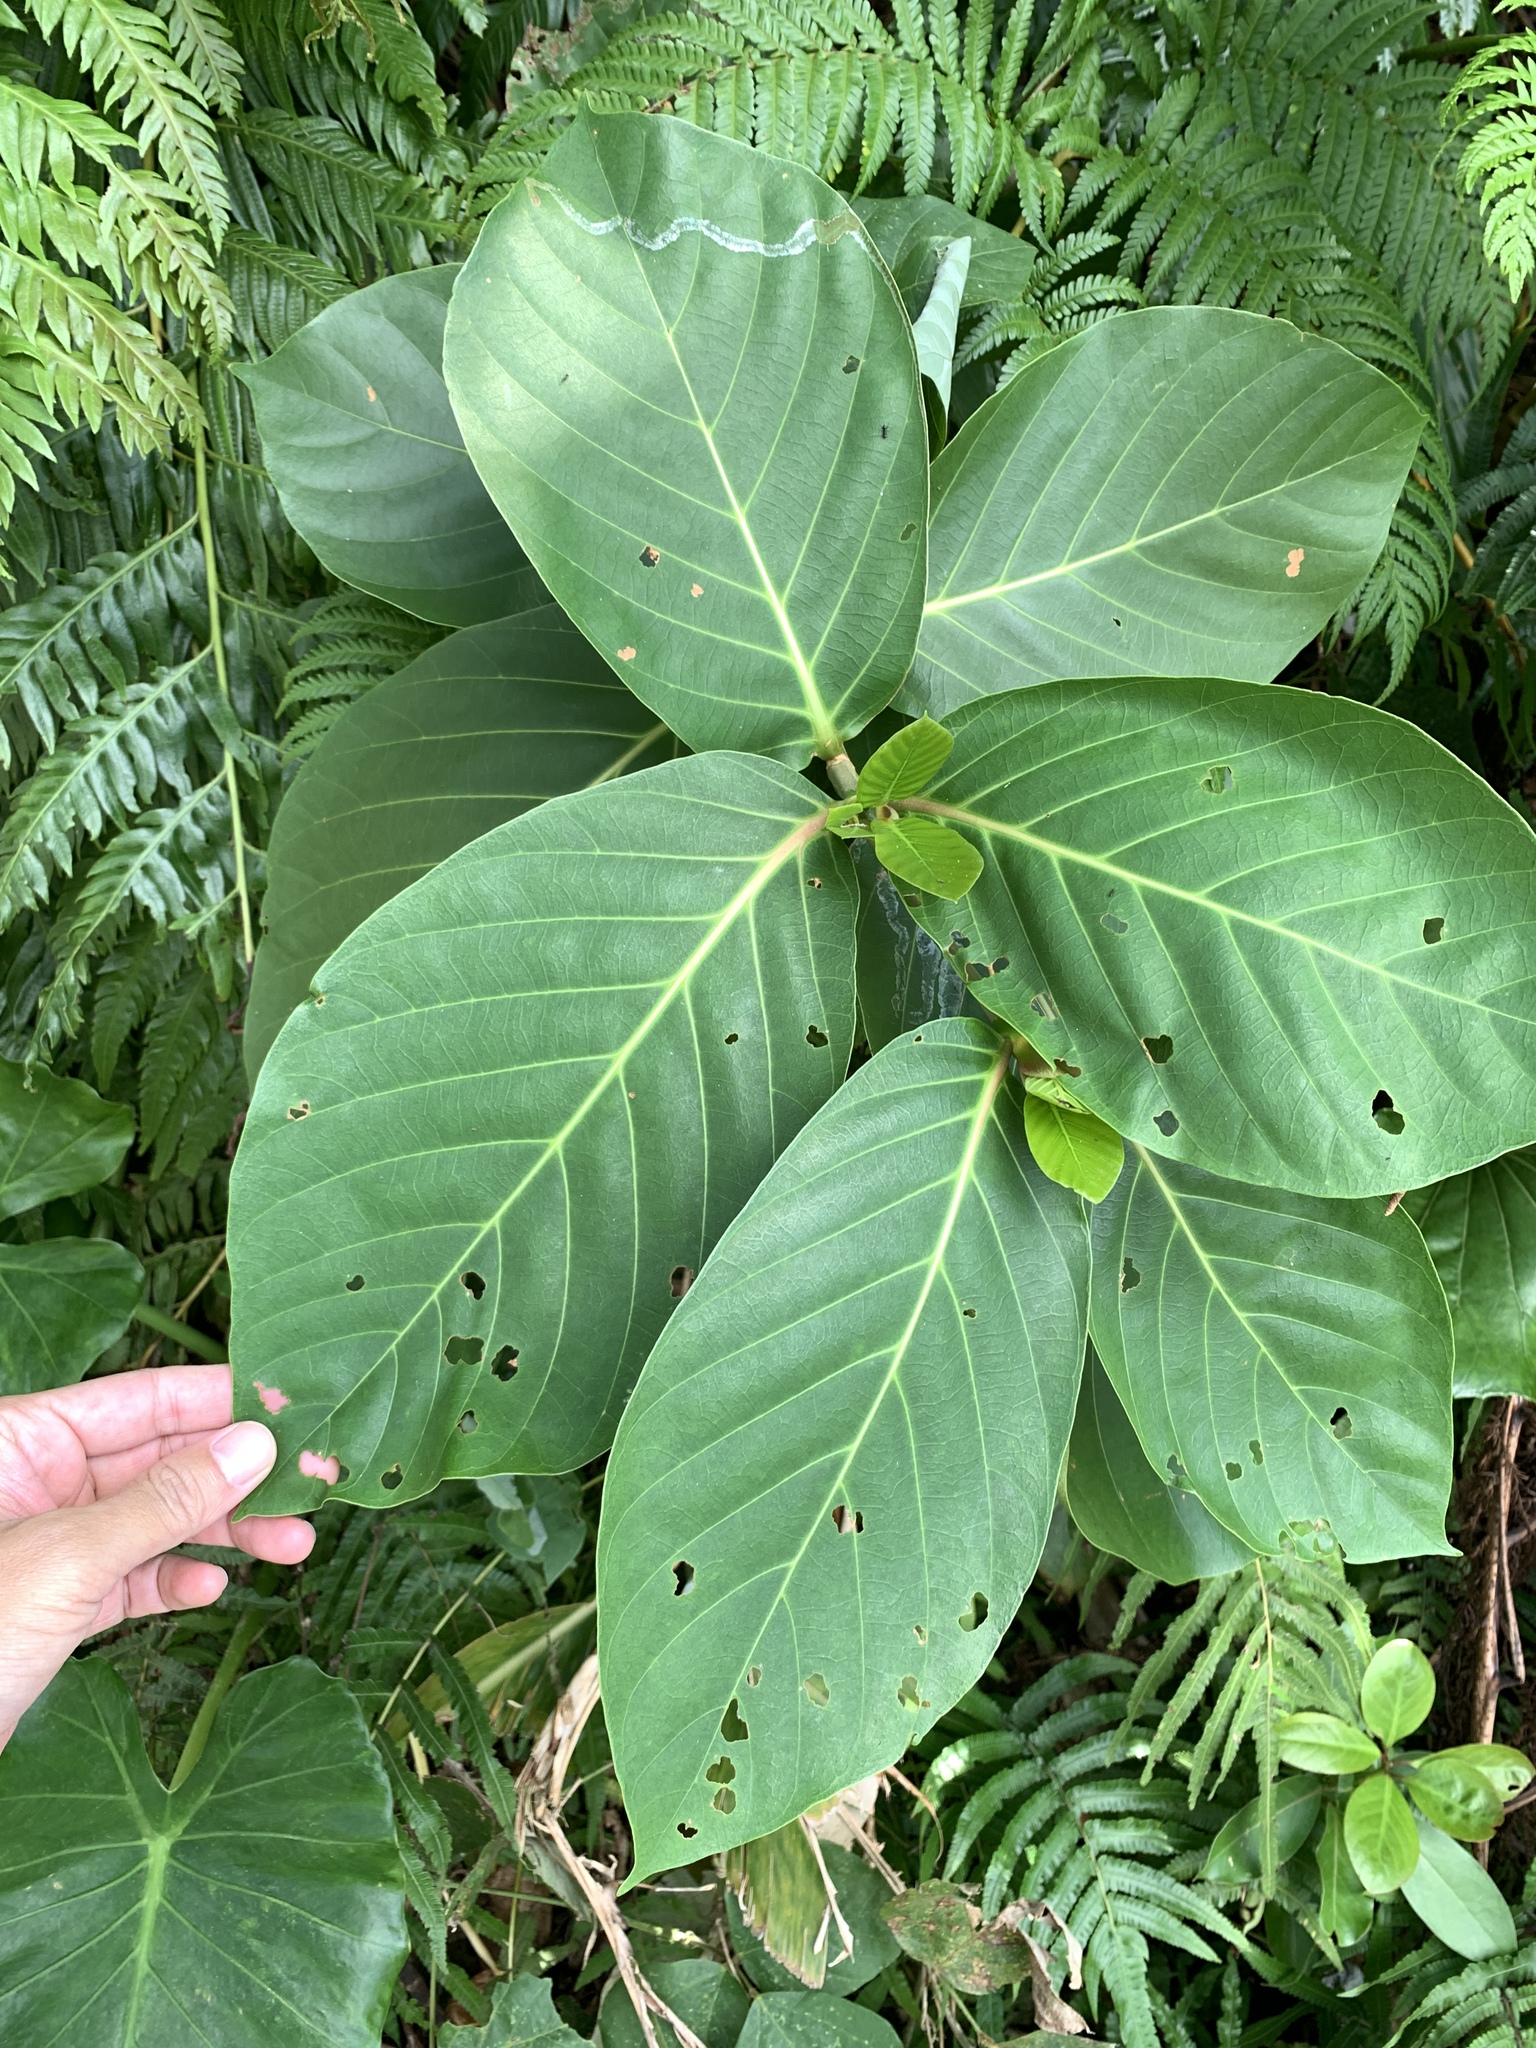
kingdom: Plantae
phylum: Tracheophyta
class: Magnoliopsida
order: Gentianales
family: Rubiaceae
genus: Neonauclea
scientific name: Neonauclea reticulata
